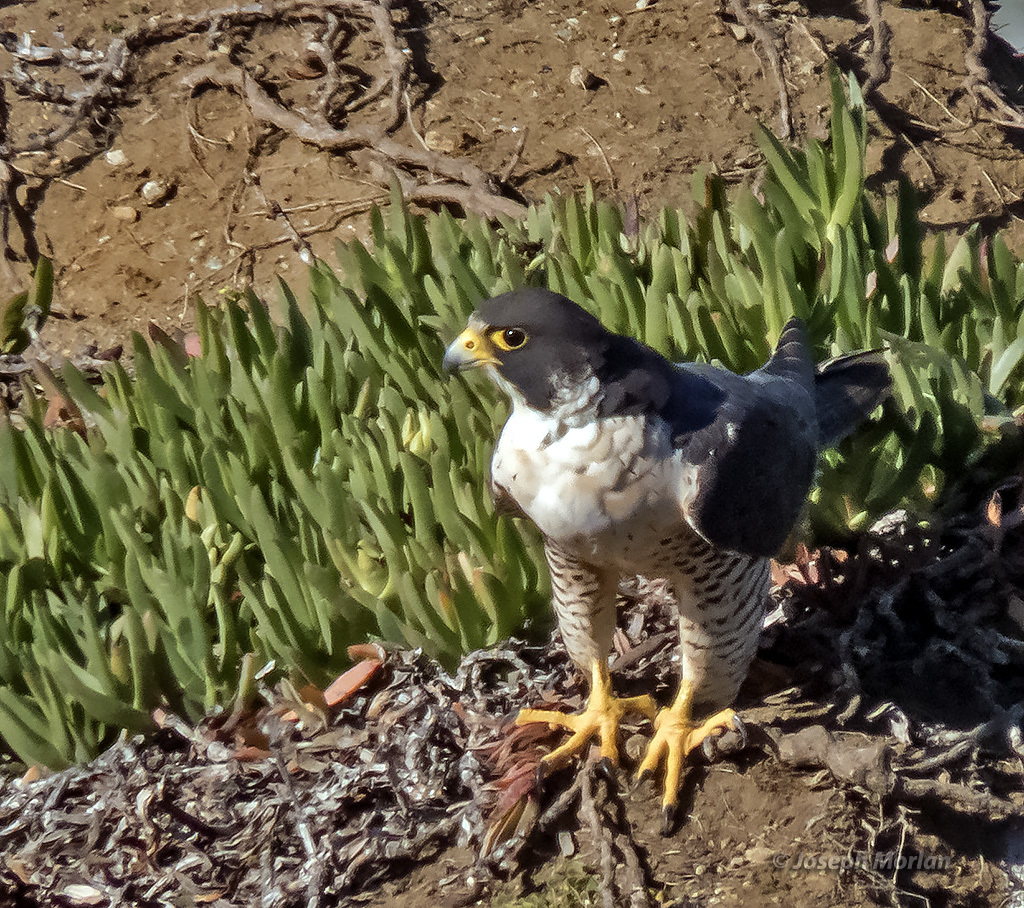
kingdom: Animalia
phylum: Chordata
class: Aves
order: Falconiformes
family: Falconidae
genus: Falco
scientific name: Falco peregrinus
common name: Peregrine falcon
